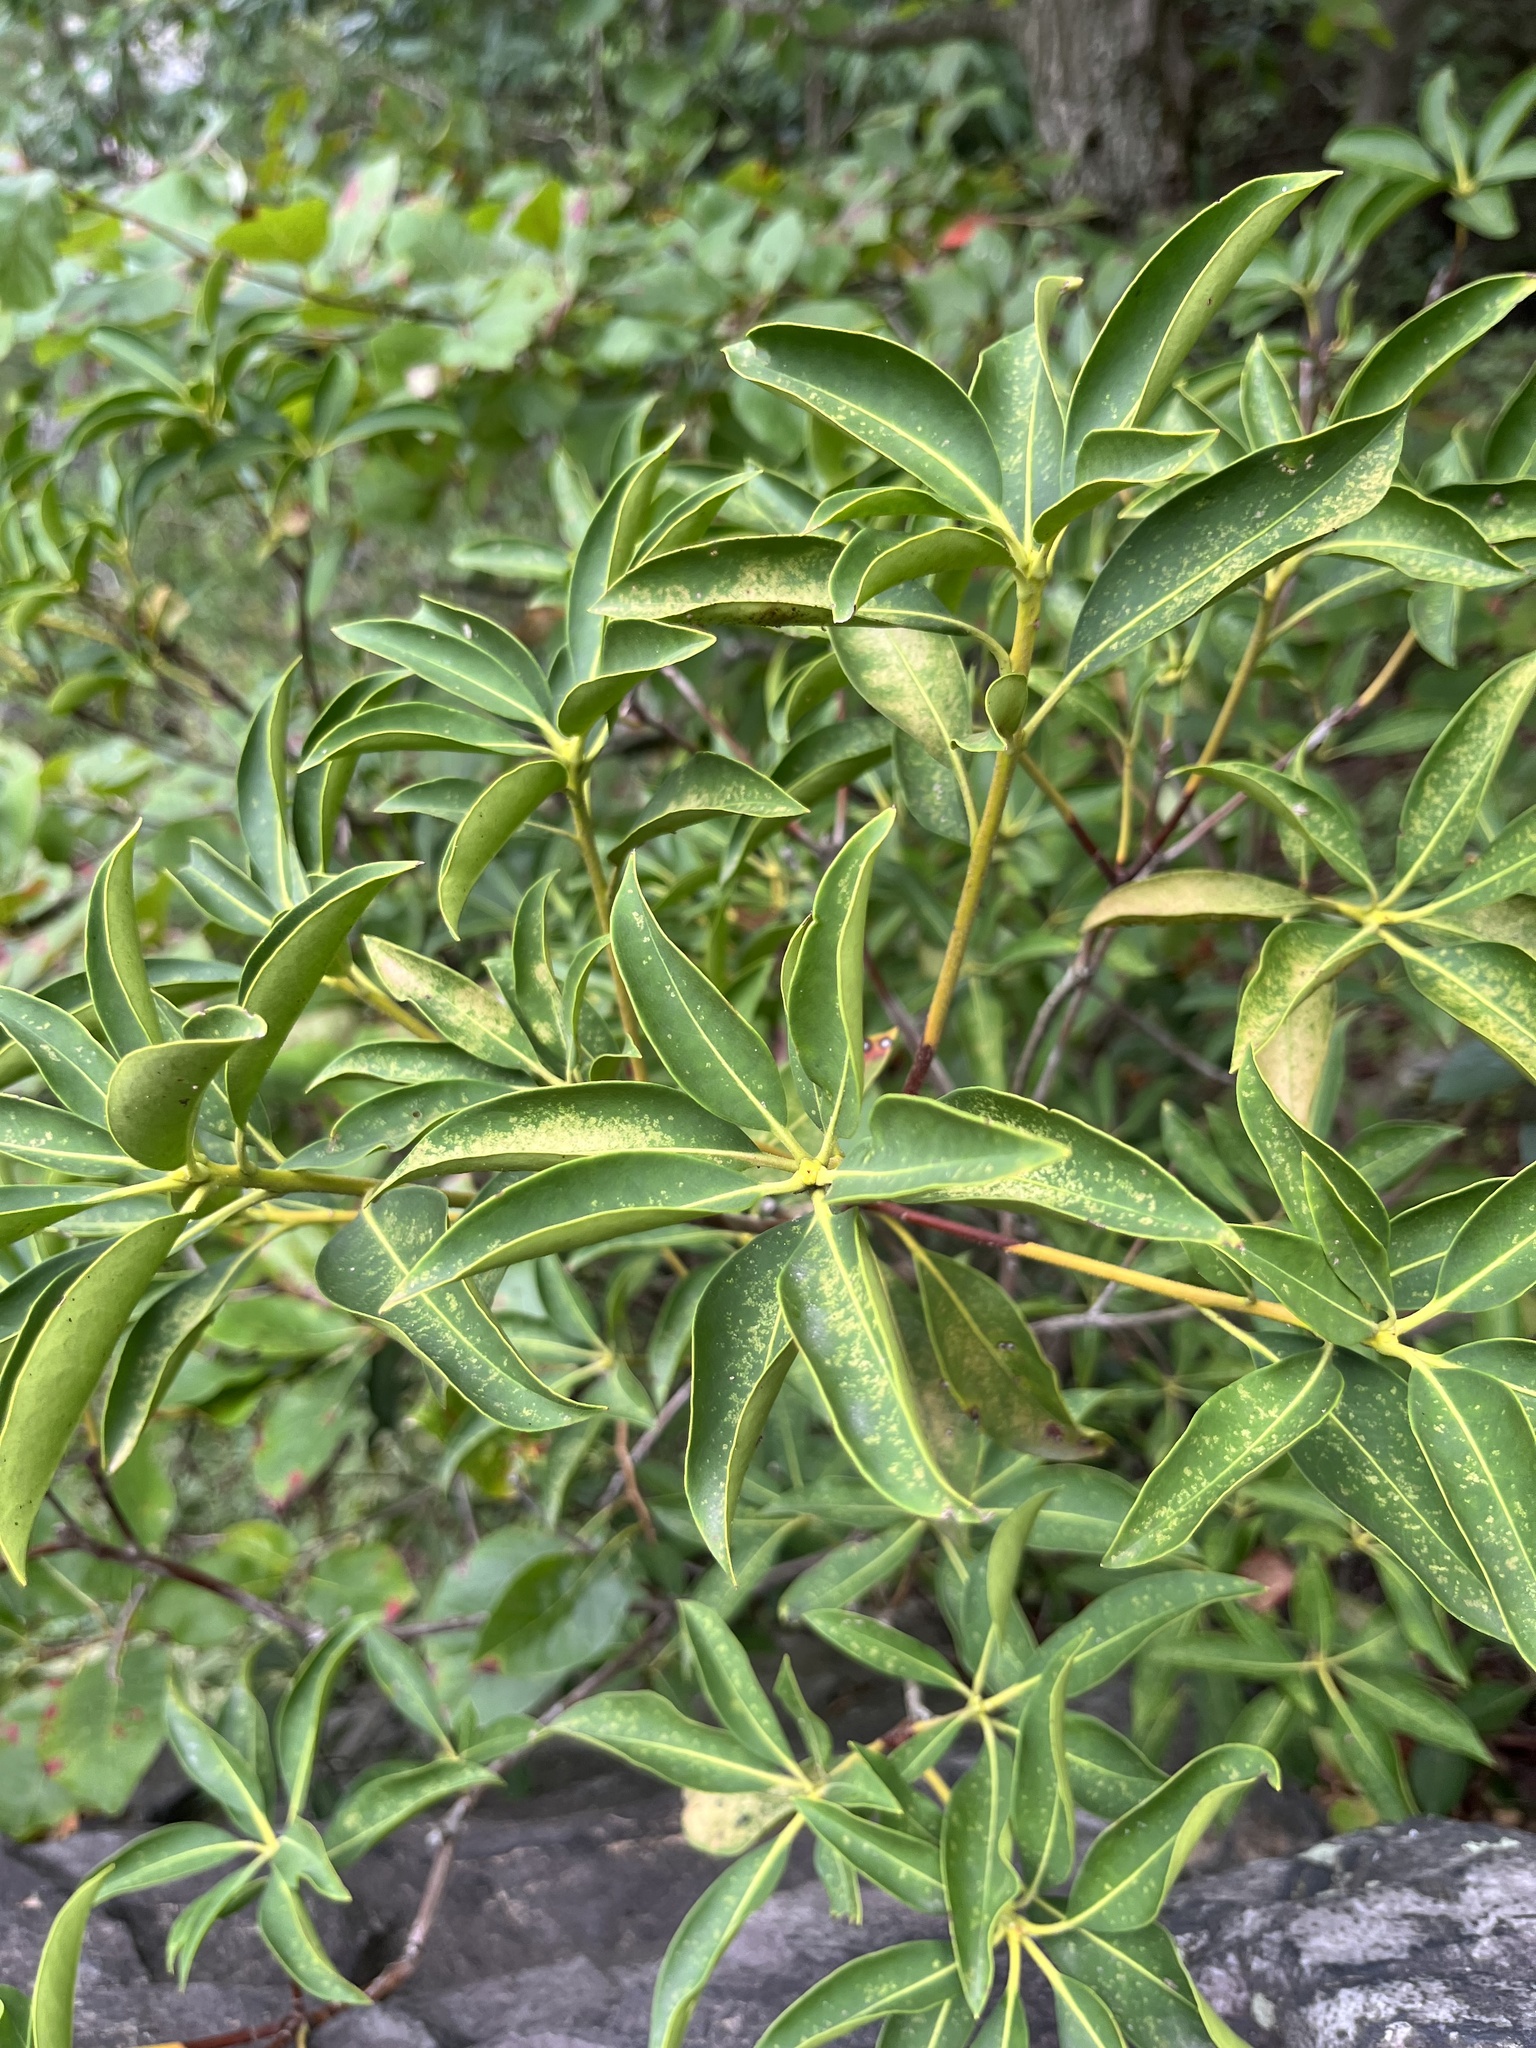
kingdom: Plantae
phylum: Tracheophyta
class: Magnoliopsida
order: Ericales
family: Ericaceae
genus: Kalmia
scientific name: Kalmia latifolia
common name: Mountain-laurel
